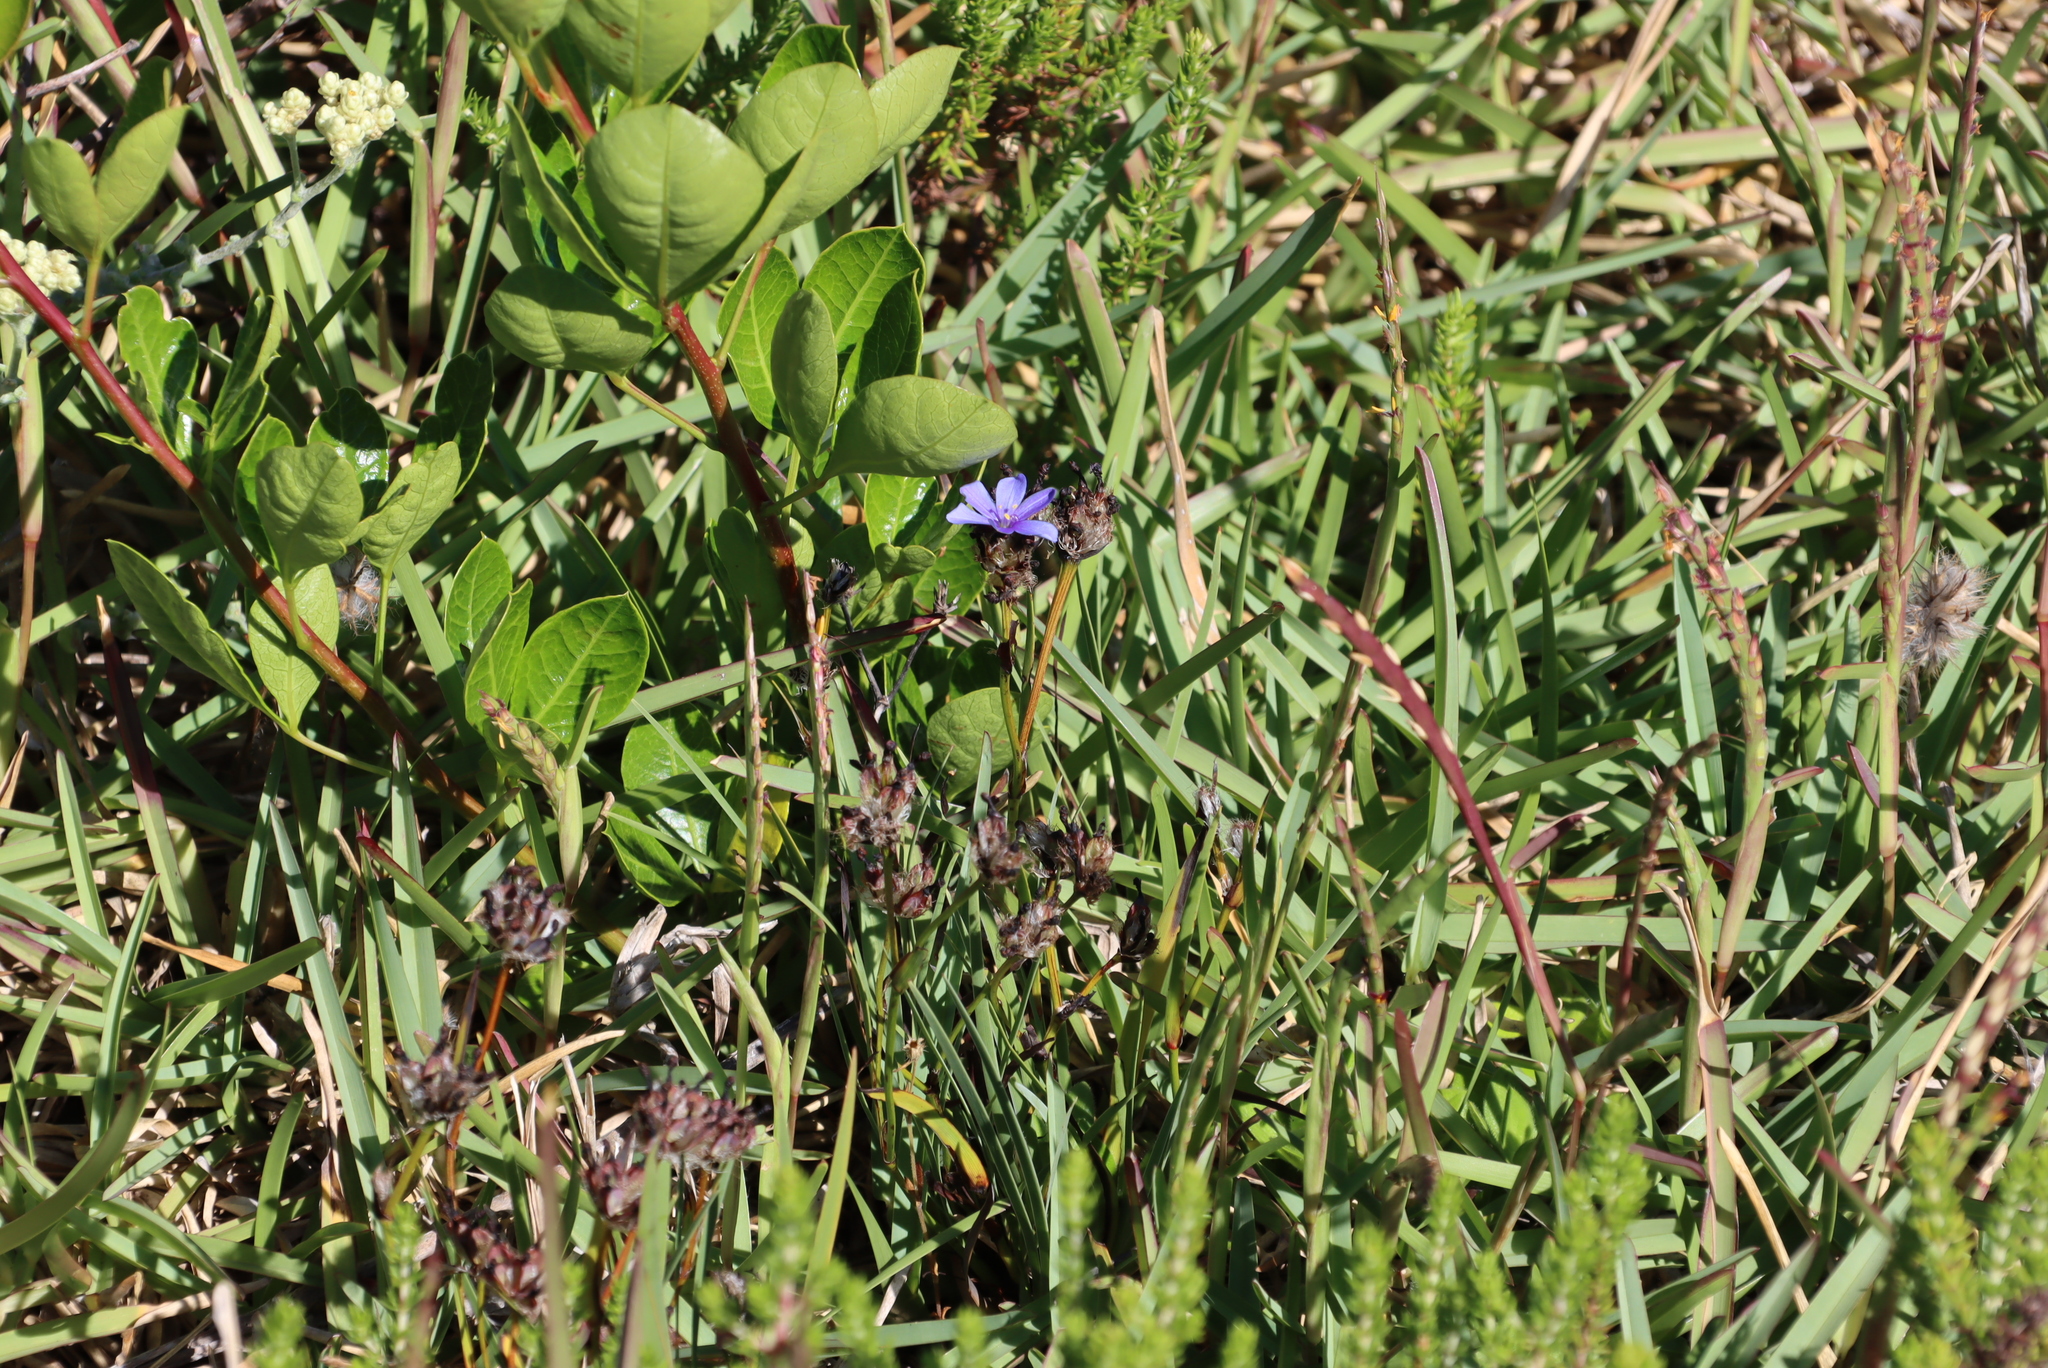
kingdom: Plantae
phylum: Tracheophyta
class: Liliopsida
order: Asparagales
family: Iridaceae
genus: Aristea
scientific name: Aristea africana
